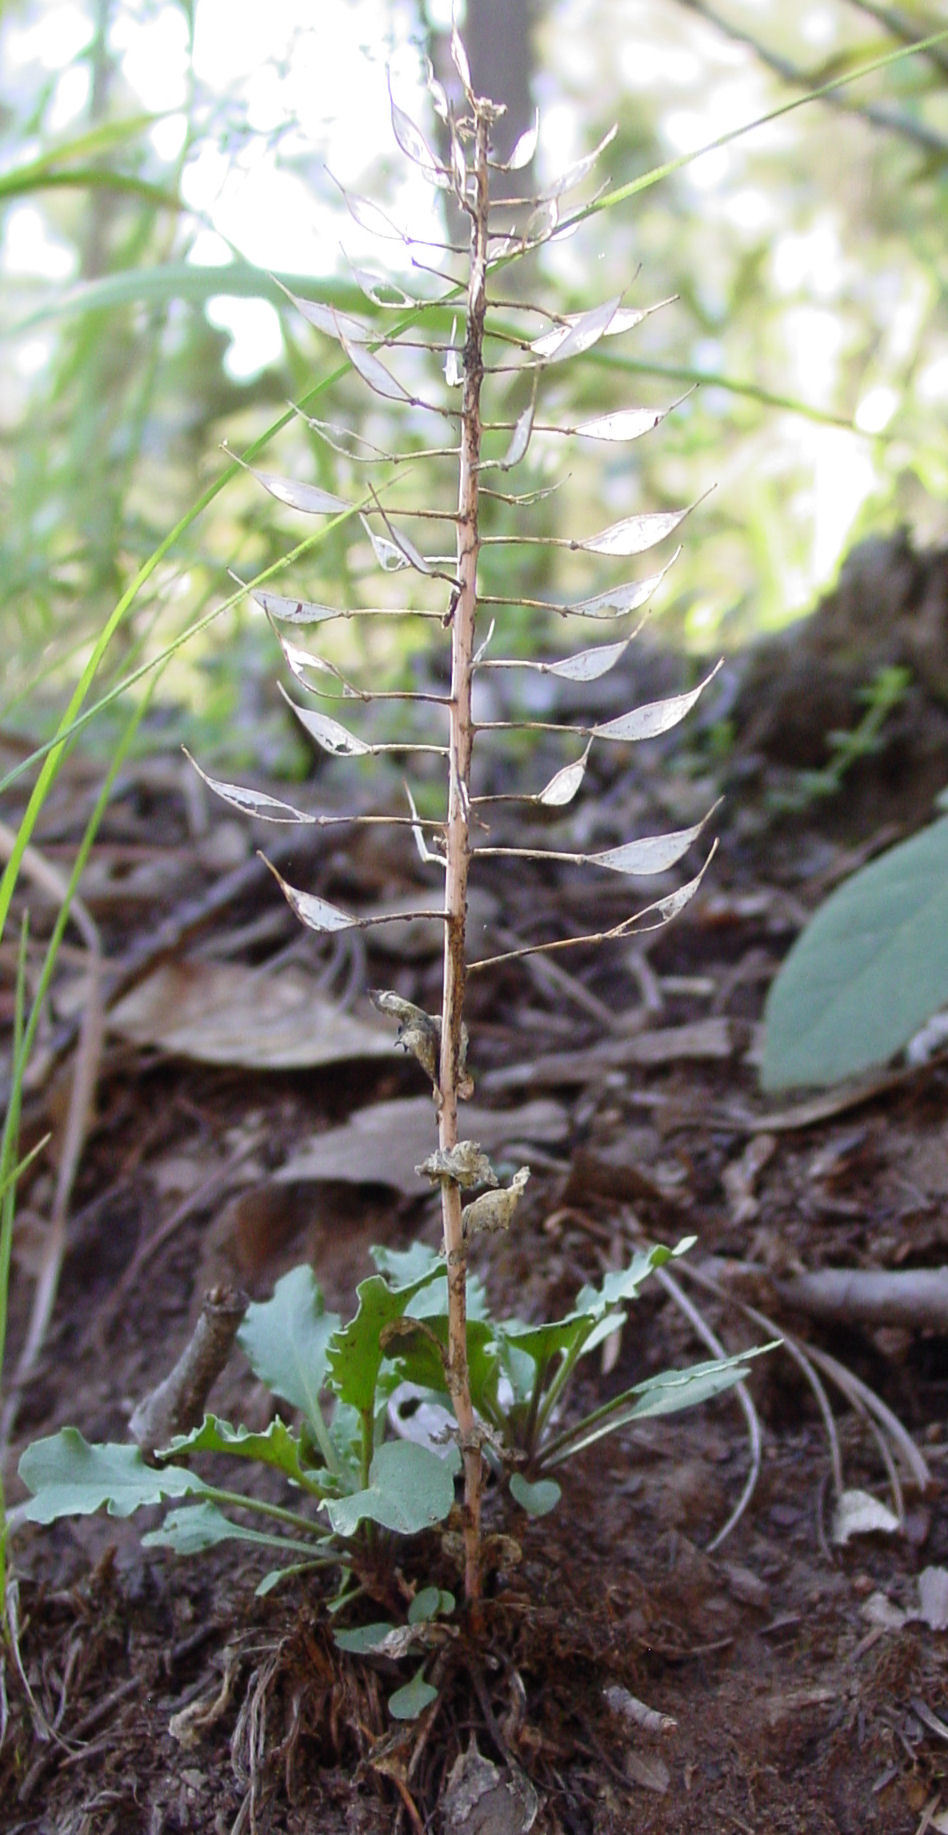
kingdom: Plantae
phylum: Tracheophyta
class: Magnoliopsida
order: Brassicales
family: Brassicaceae
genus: Noccaea
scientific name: Noccaea fendleri
